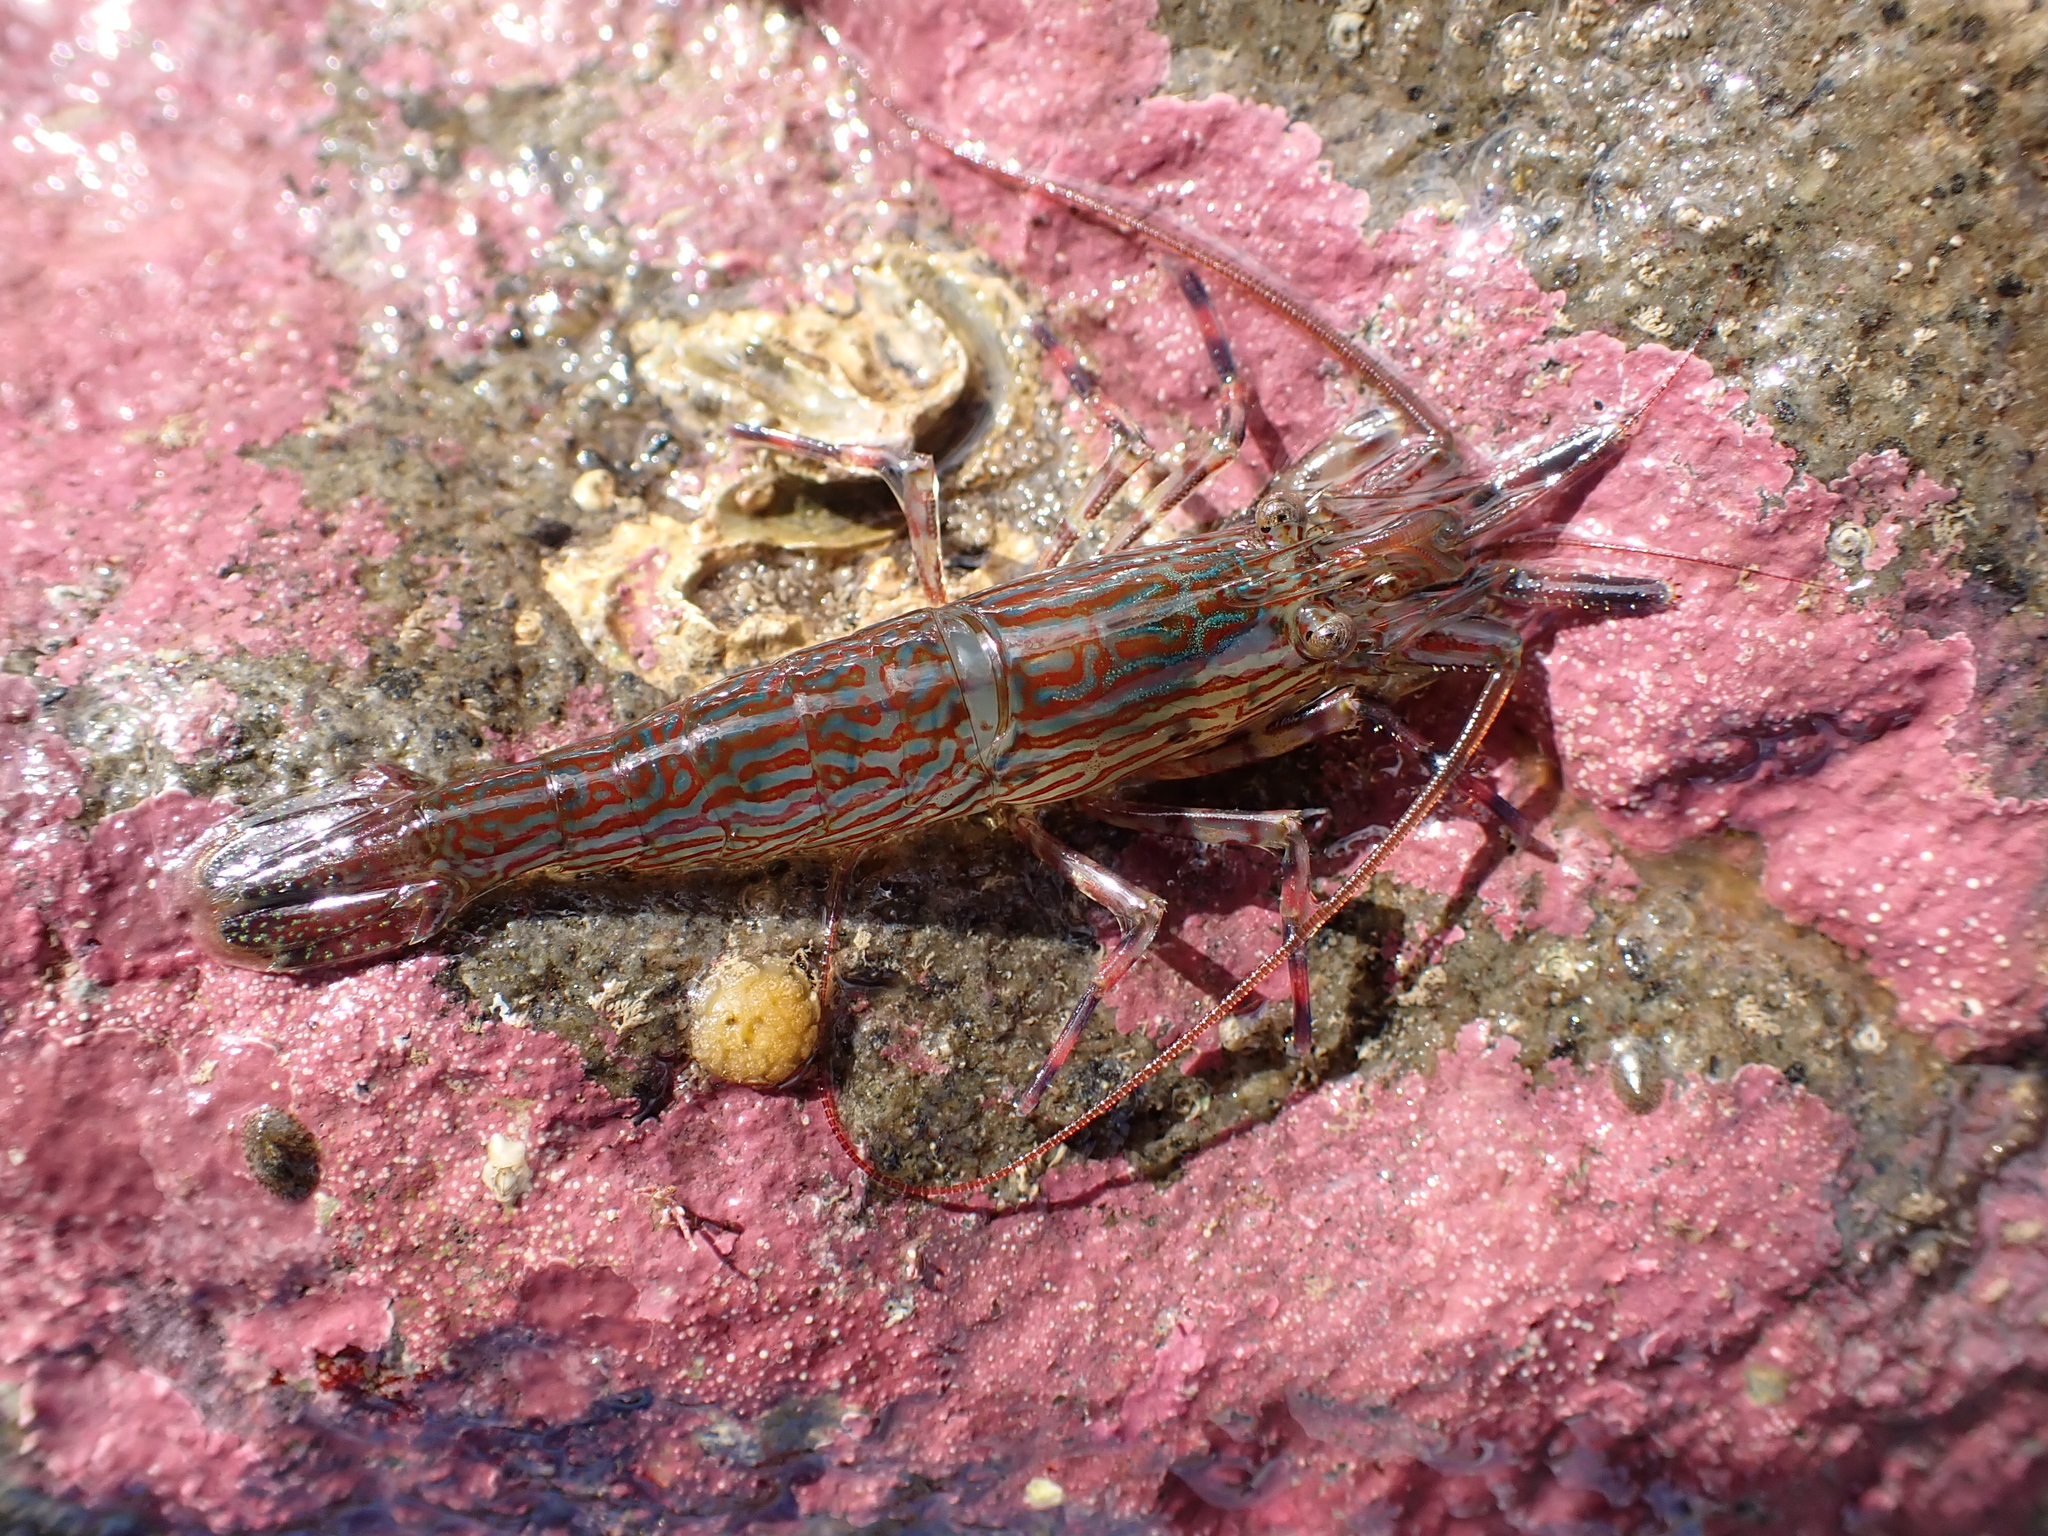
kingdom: Animalia
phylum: Arthropoda
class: Malacostraca
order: Decapoda
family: Hippolytidae
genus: Alope
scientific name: Alope spinifrons
